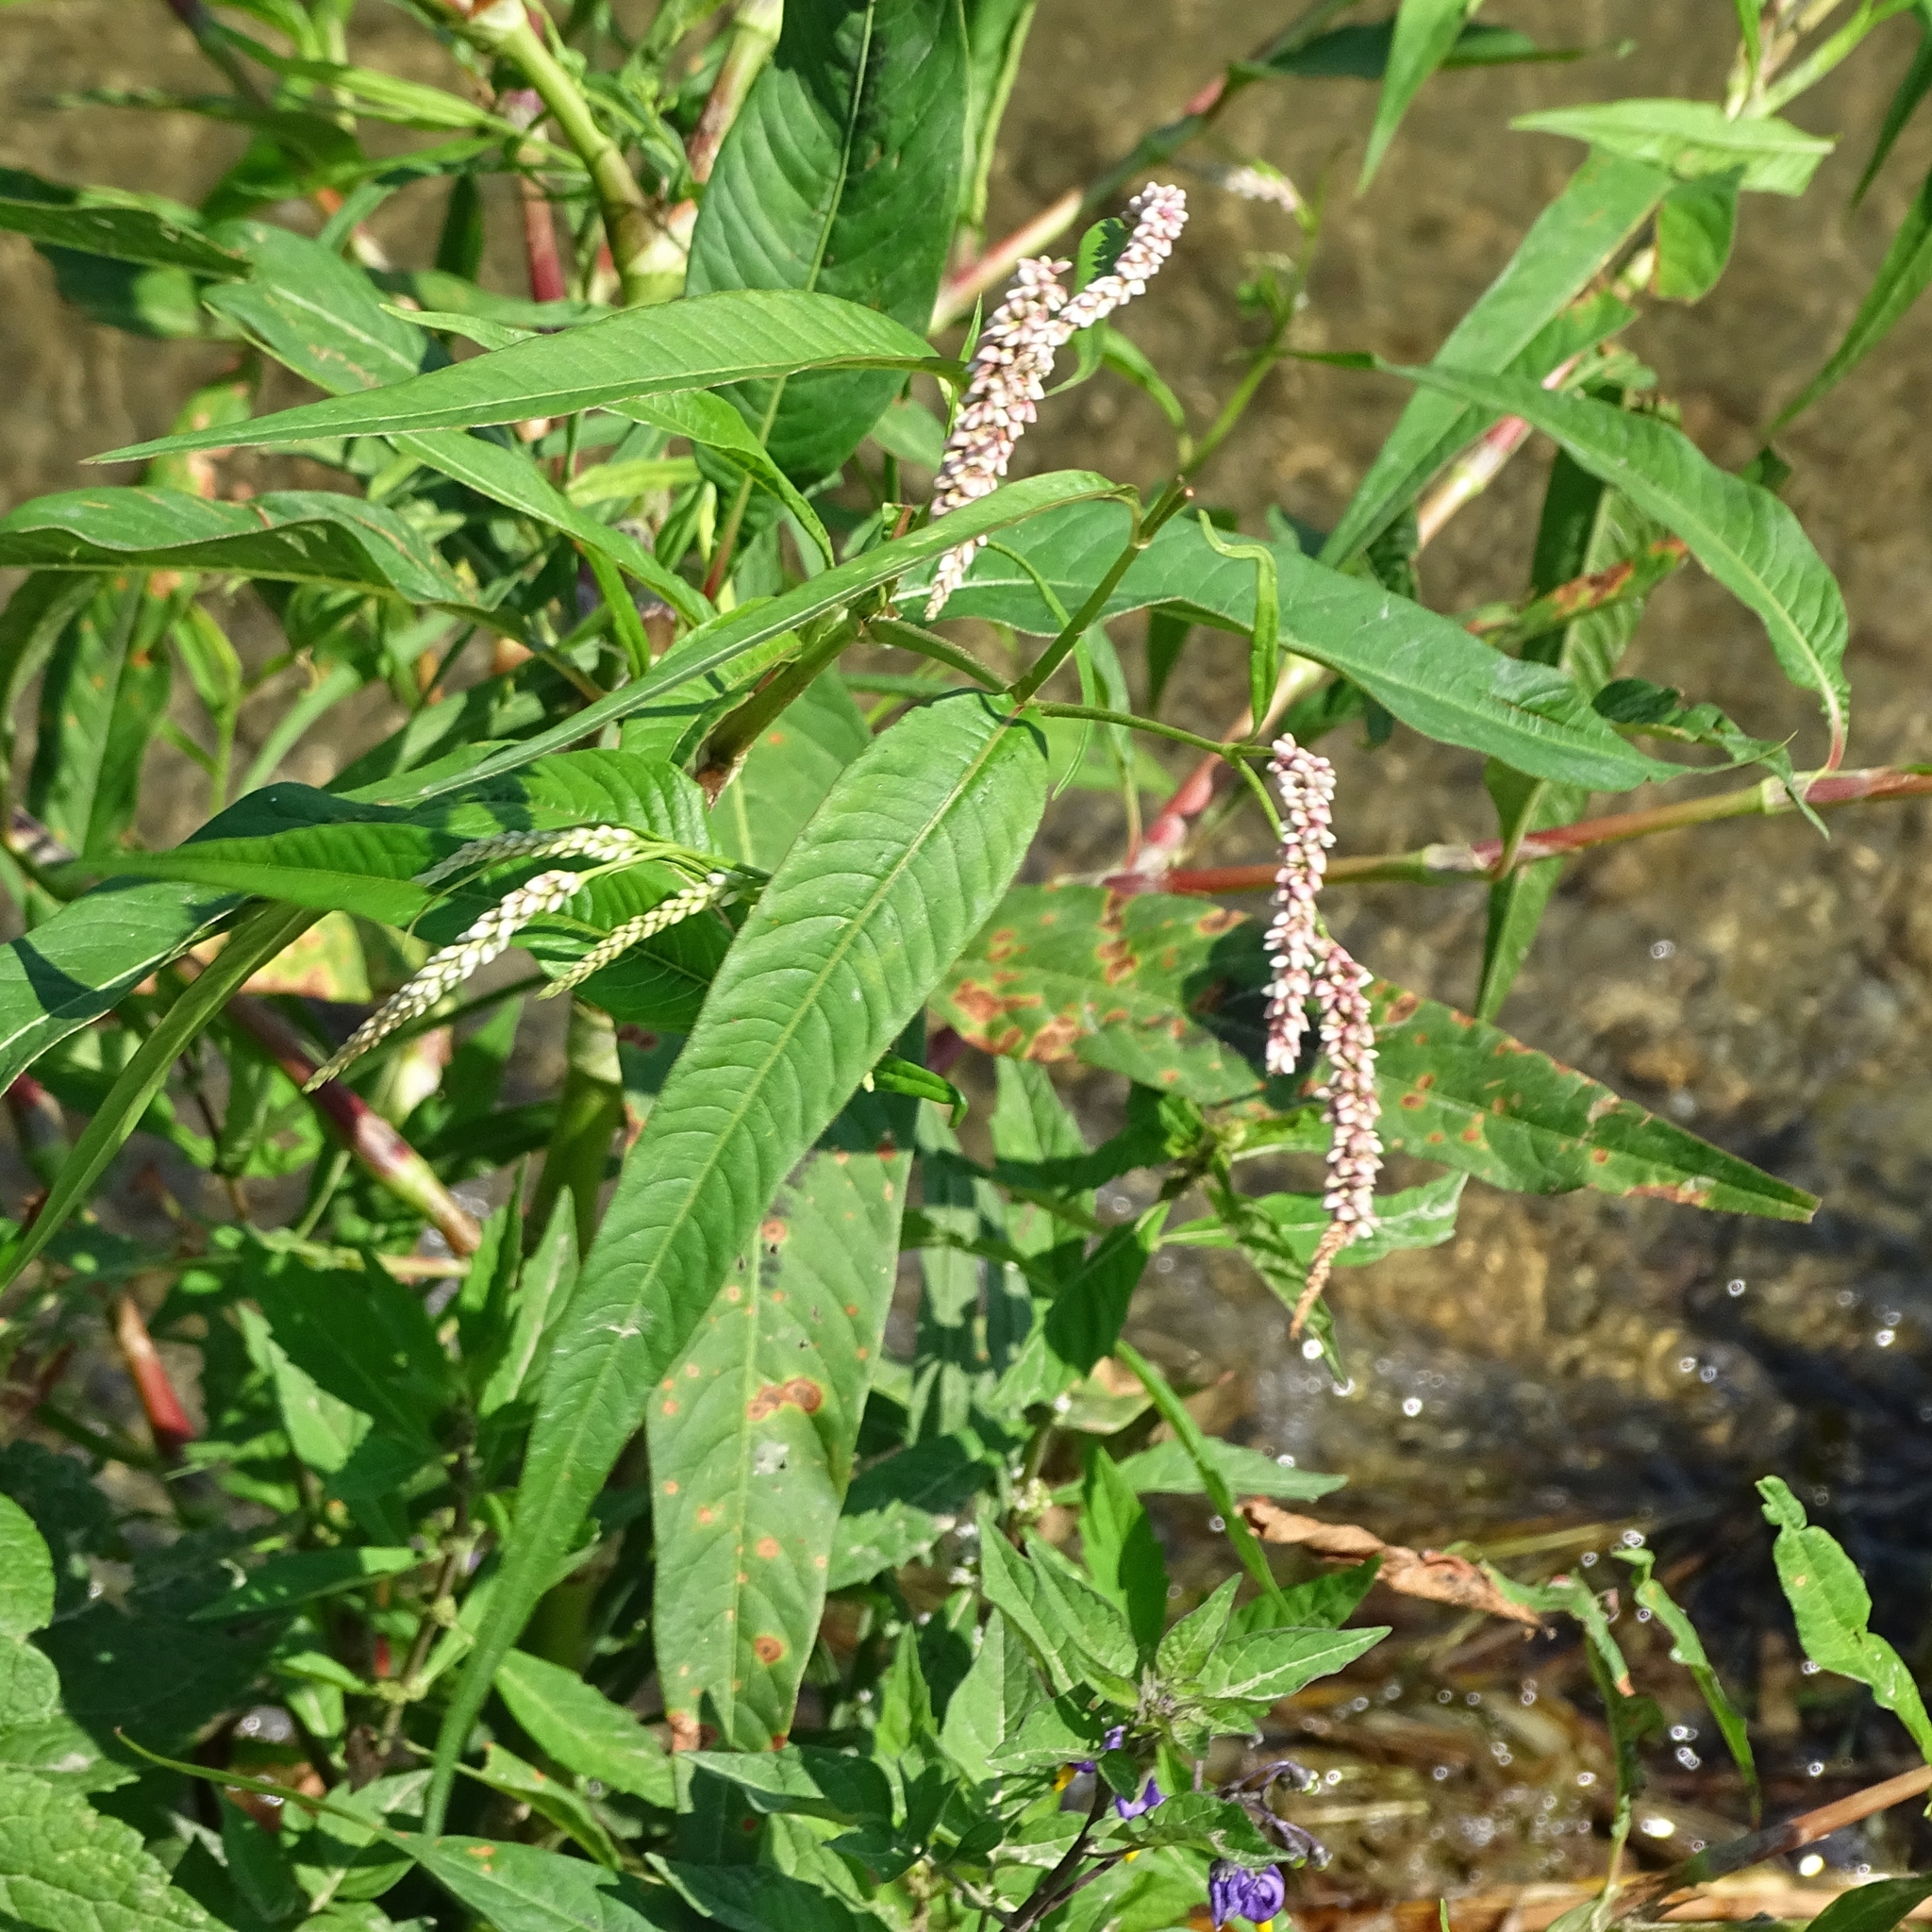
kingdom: Plantae
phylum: Tracheophyta
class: Magnoliopsida
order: Caryophyllales
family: Polygonaceae
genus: Persicaria
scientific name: Persicaria lapathifolia
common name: Curlytop knotweed
